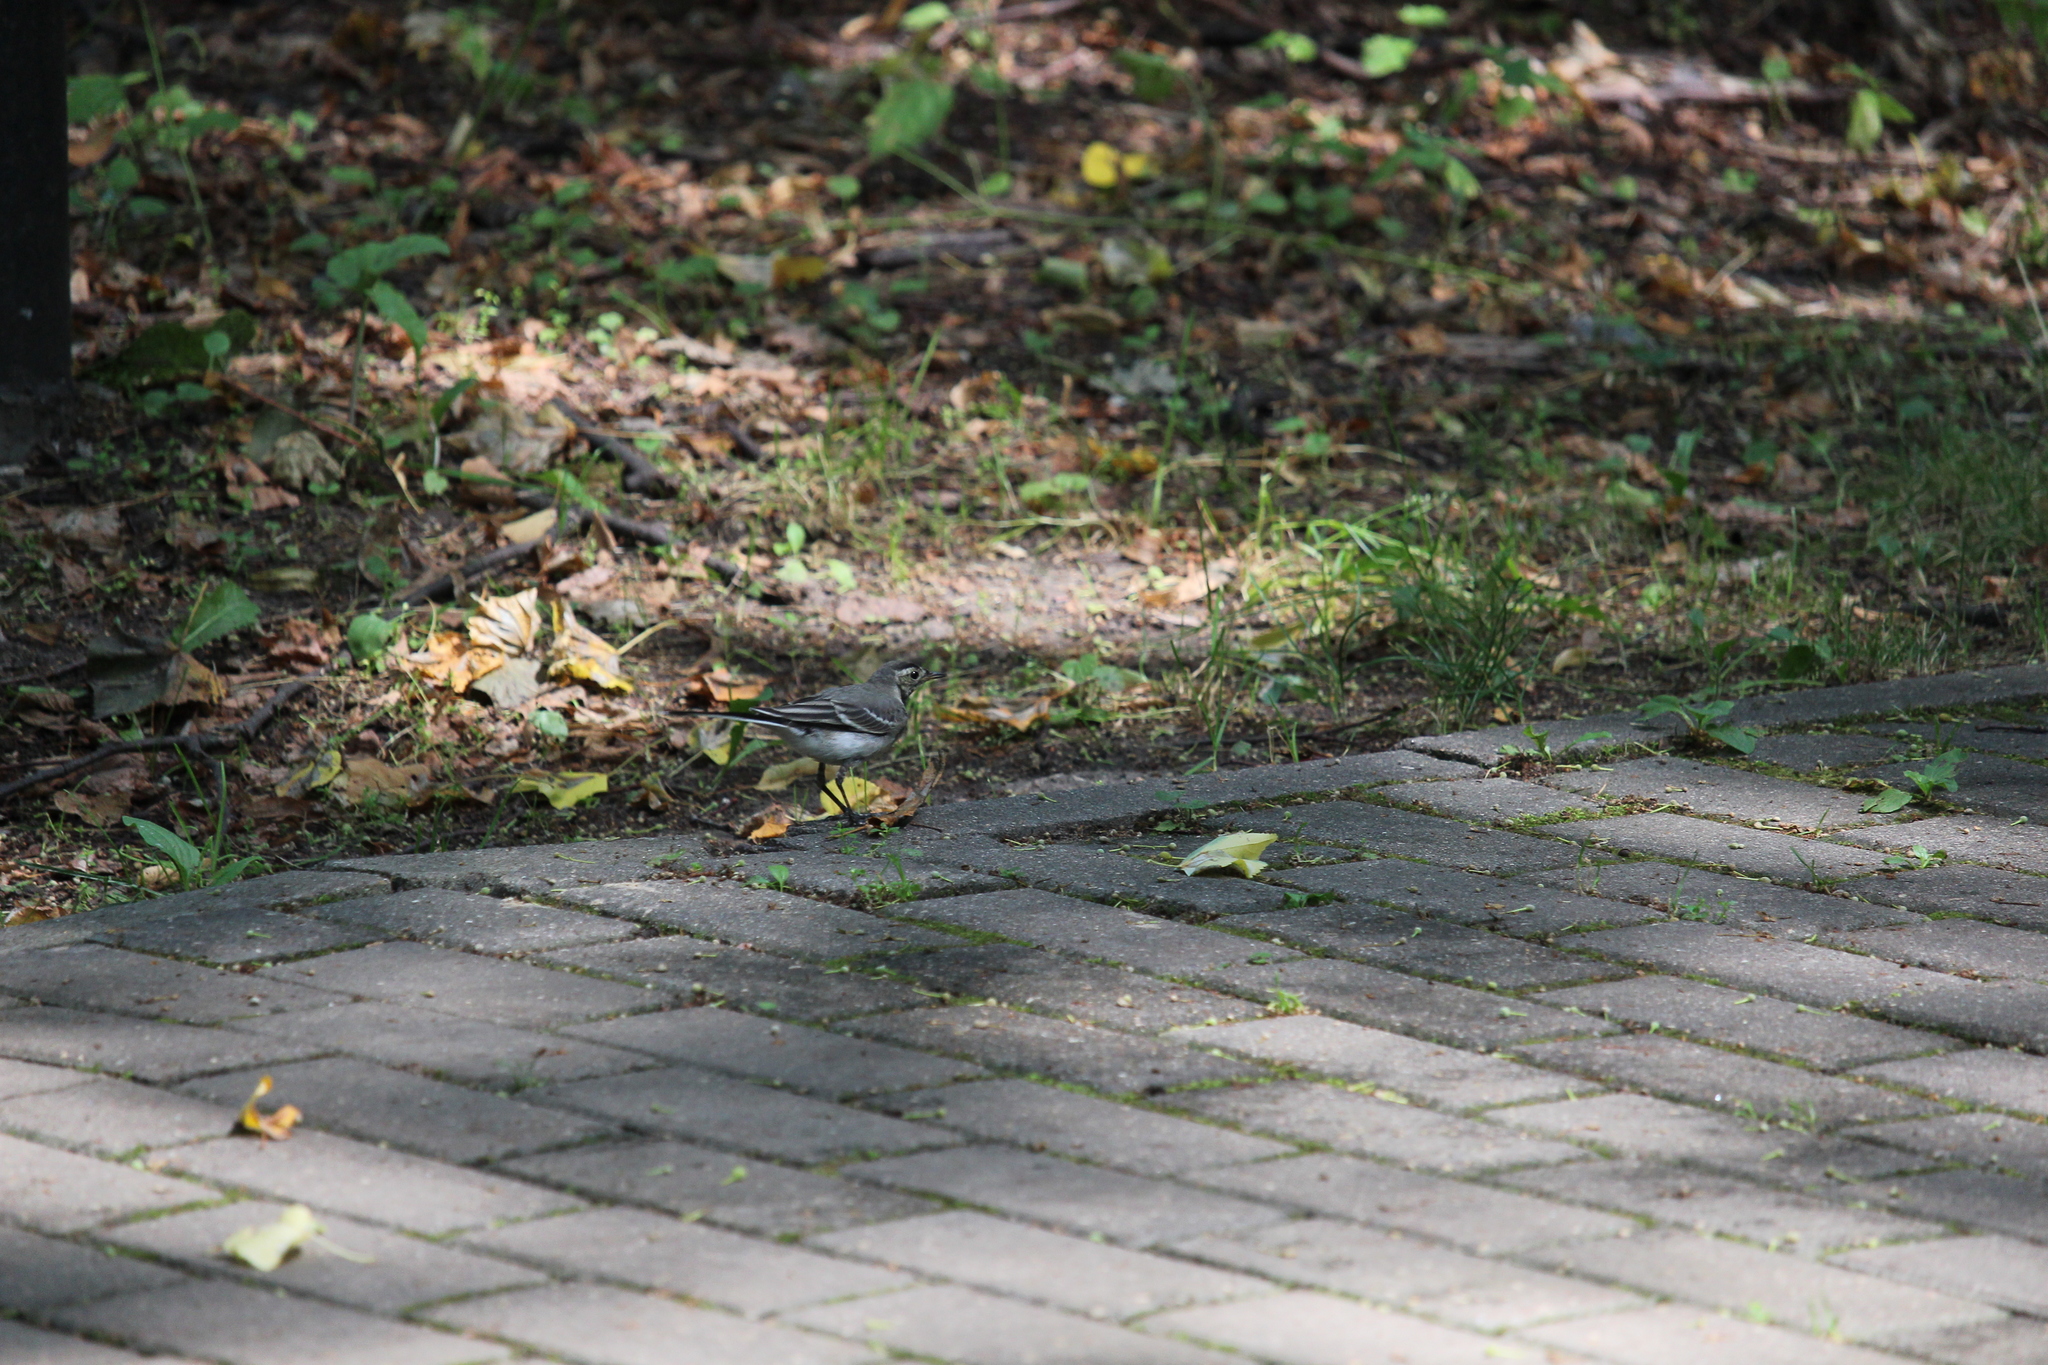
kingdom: Animalia
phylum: Chordata
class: Aves
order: Passeriformes
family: Motacillidae
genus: Motacilla
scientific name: Motacilla alba
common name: White wagtail
